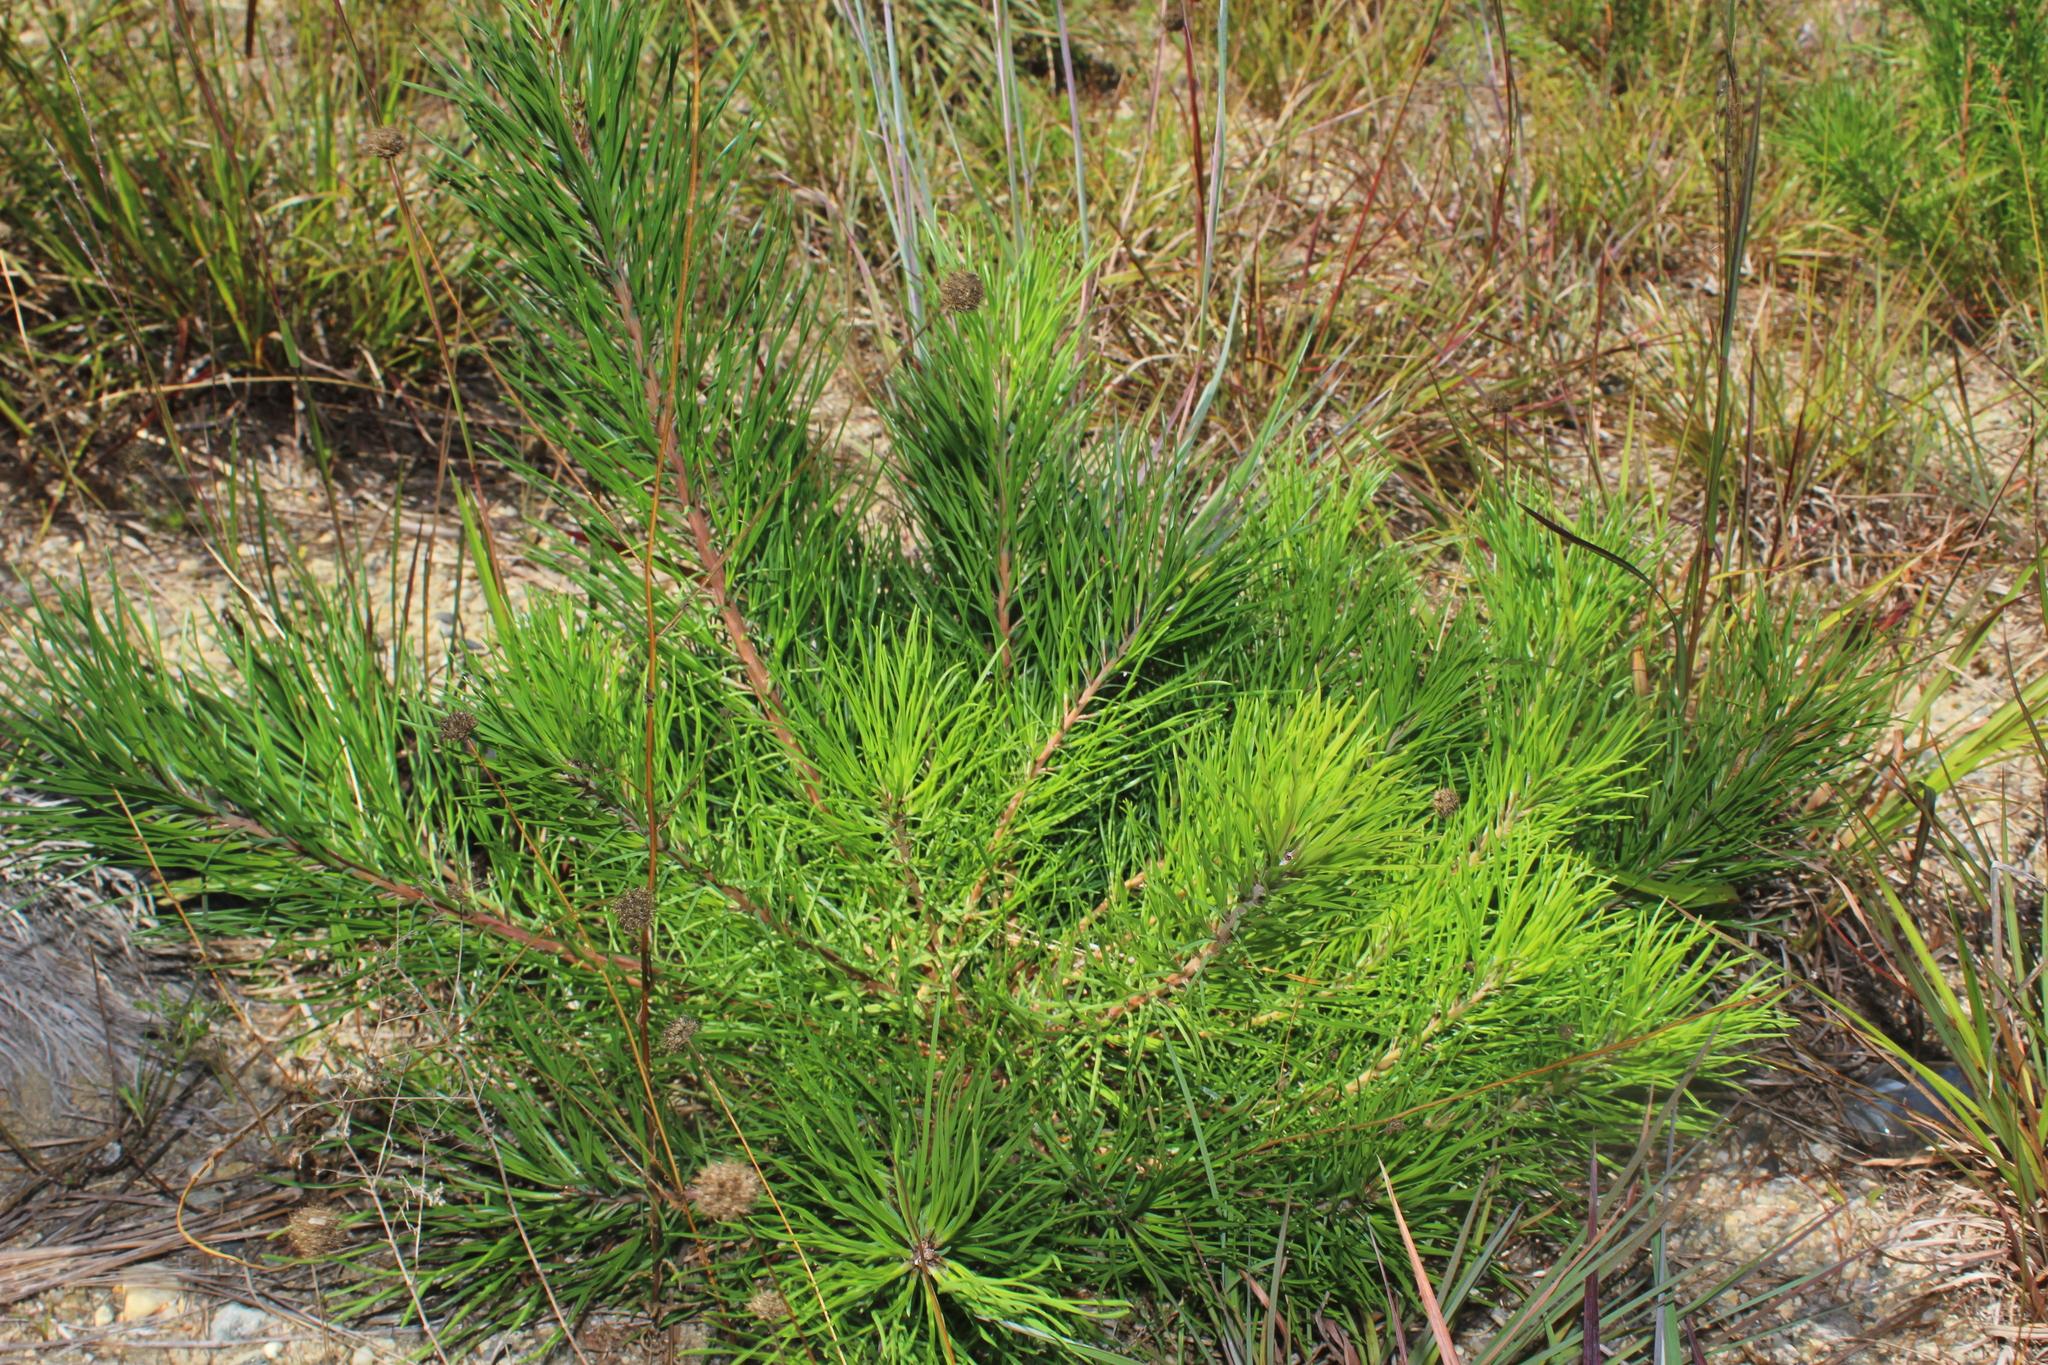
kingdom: Plantae
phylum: Tracheophyta
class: Pinopsida
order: Pinales
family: Pinaceae
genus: Pinus
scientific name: Pinus rigida
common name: Pitch pine
